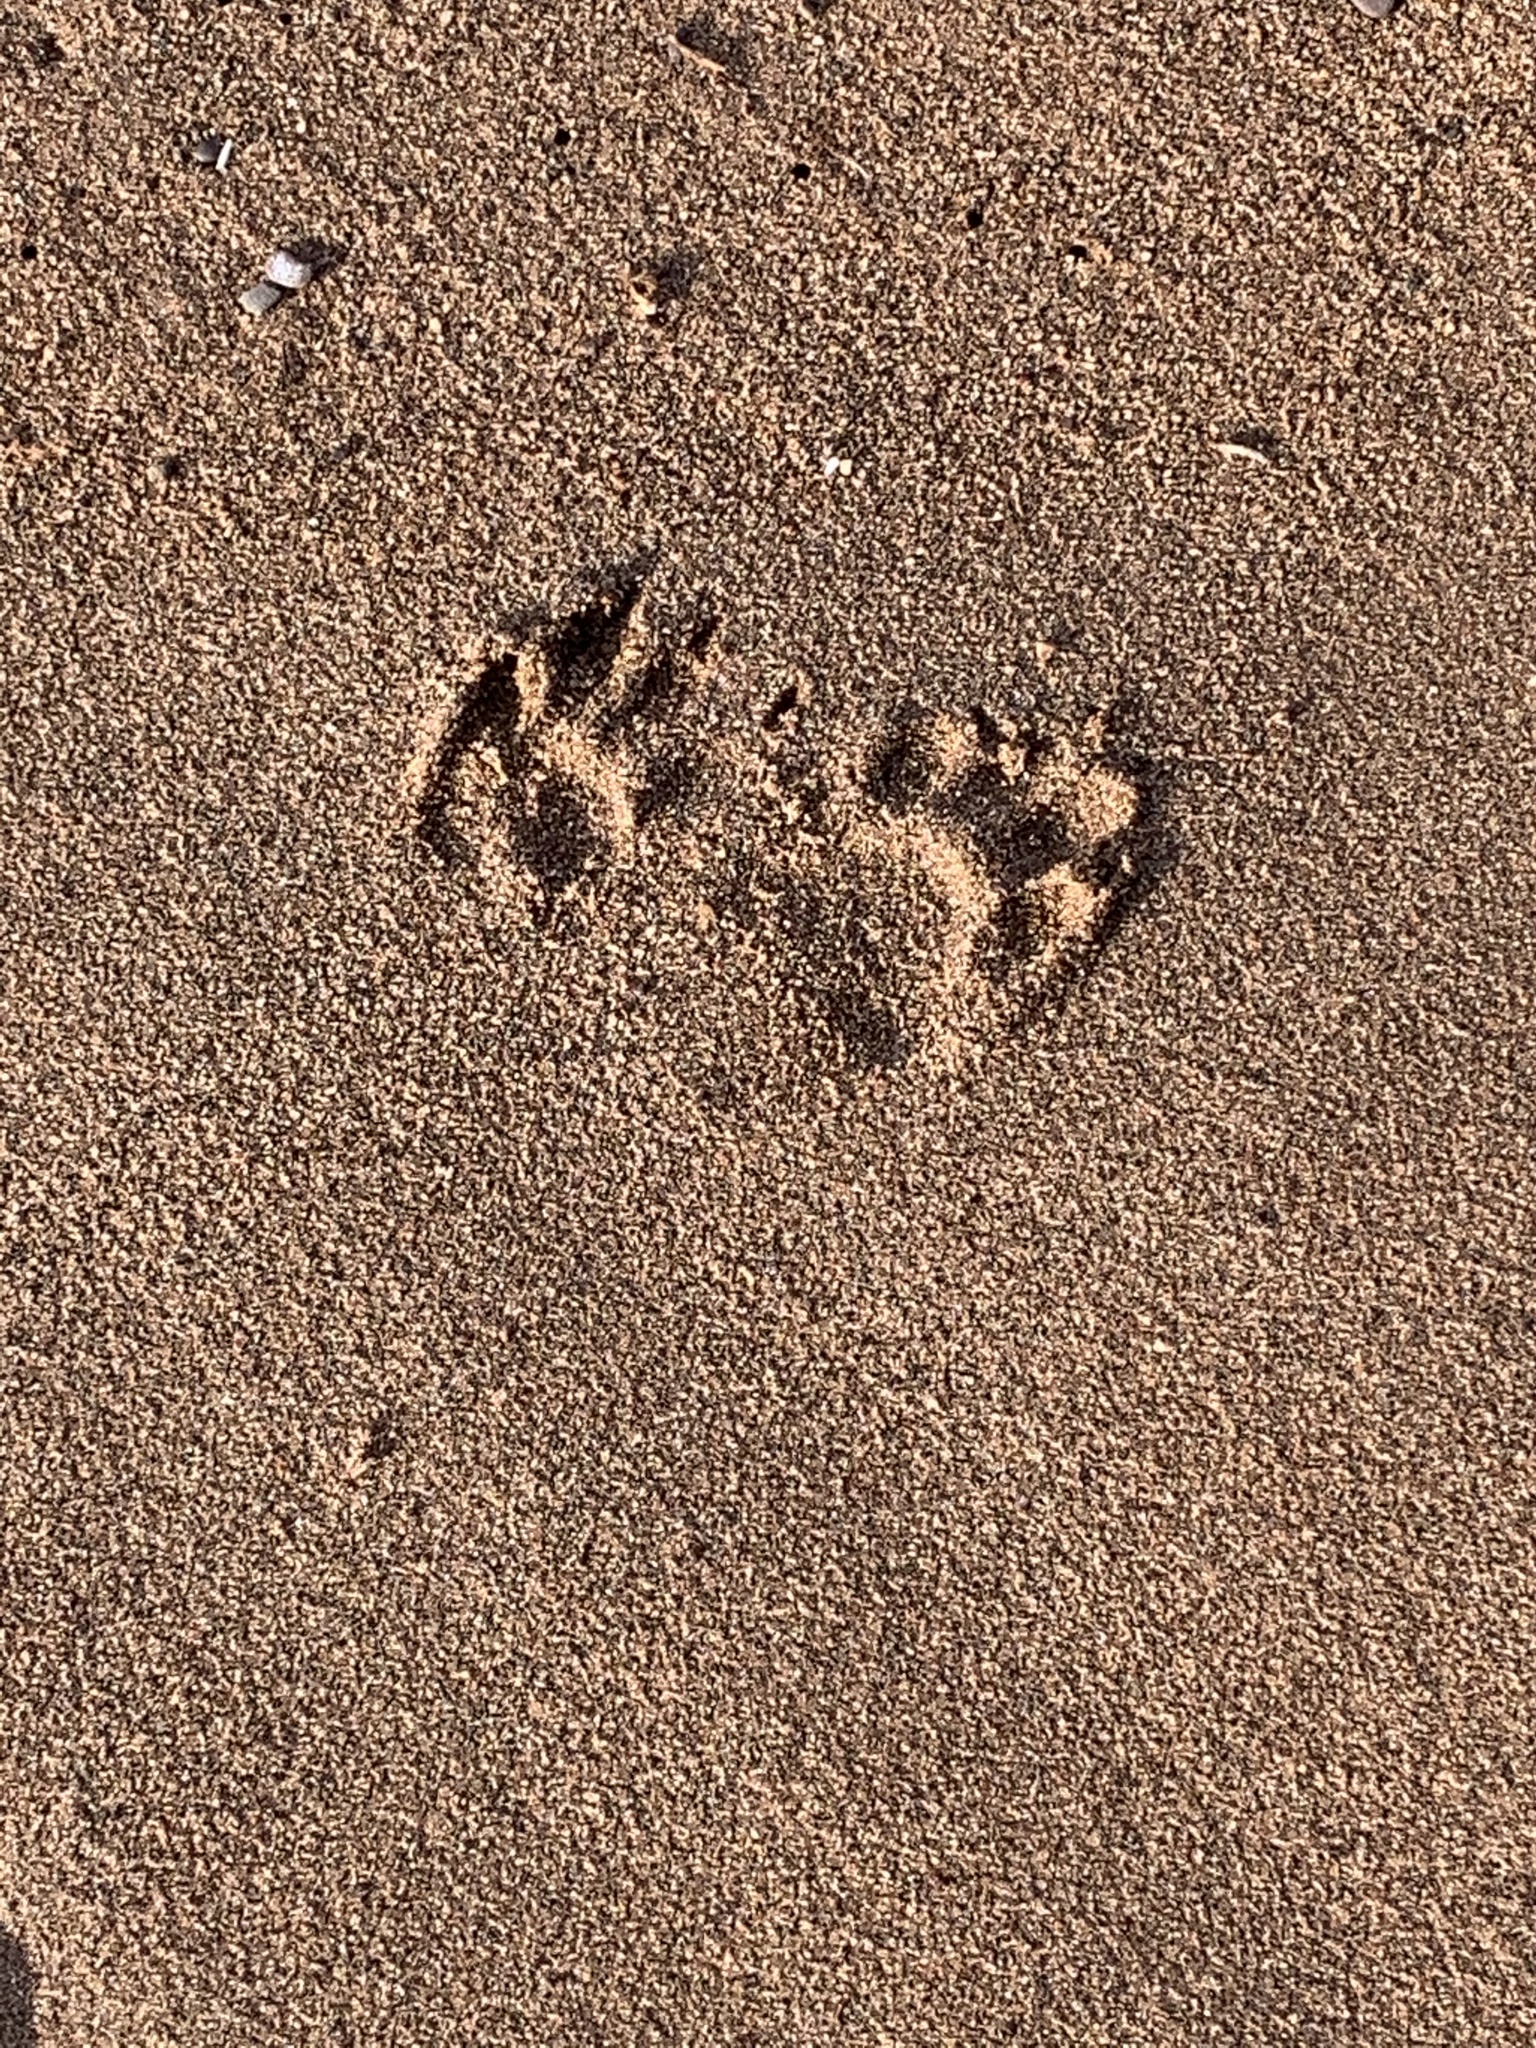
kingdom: Animalia
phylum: Chordata
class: Mammalia
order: Carnivora
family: Procyonidae
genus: Procyon
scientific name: Procyon lotor
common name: Raccoon
